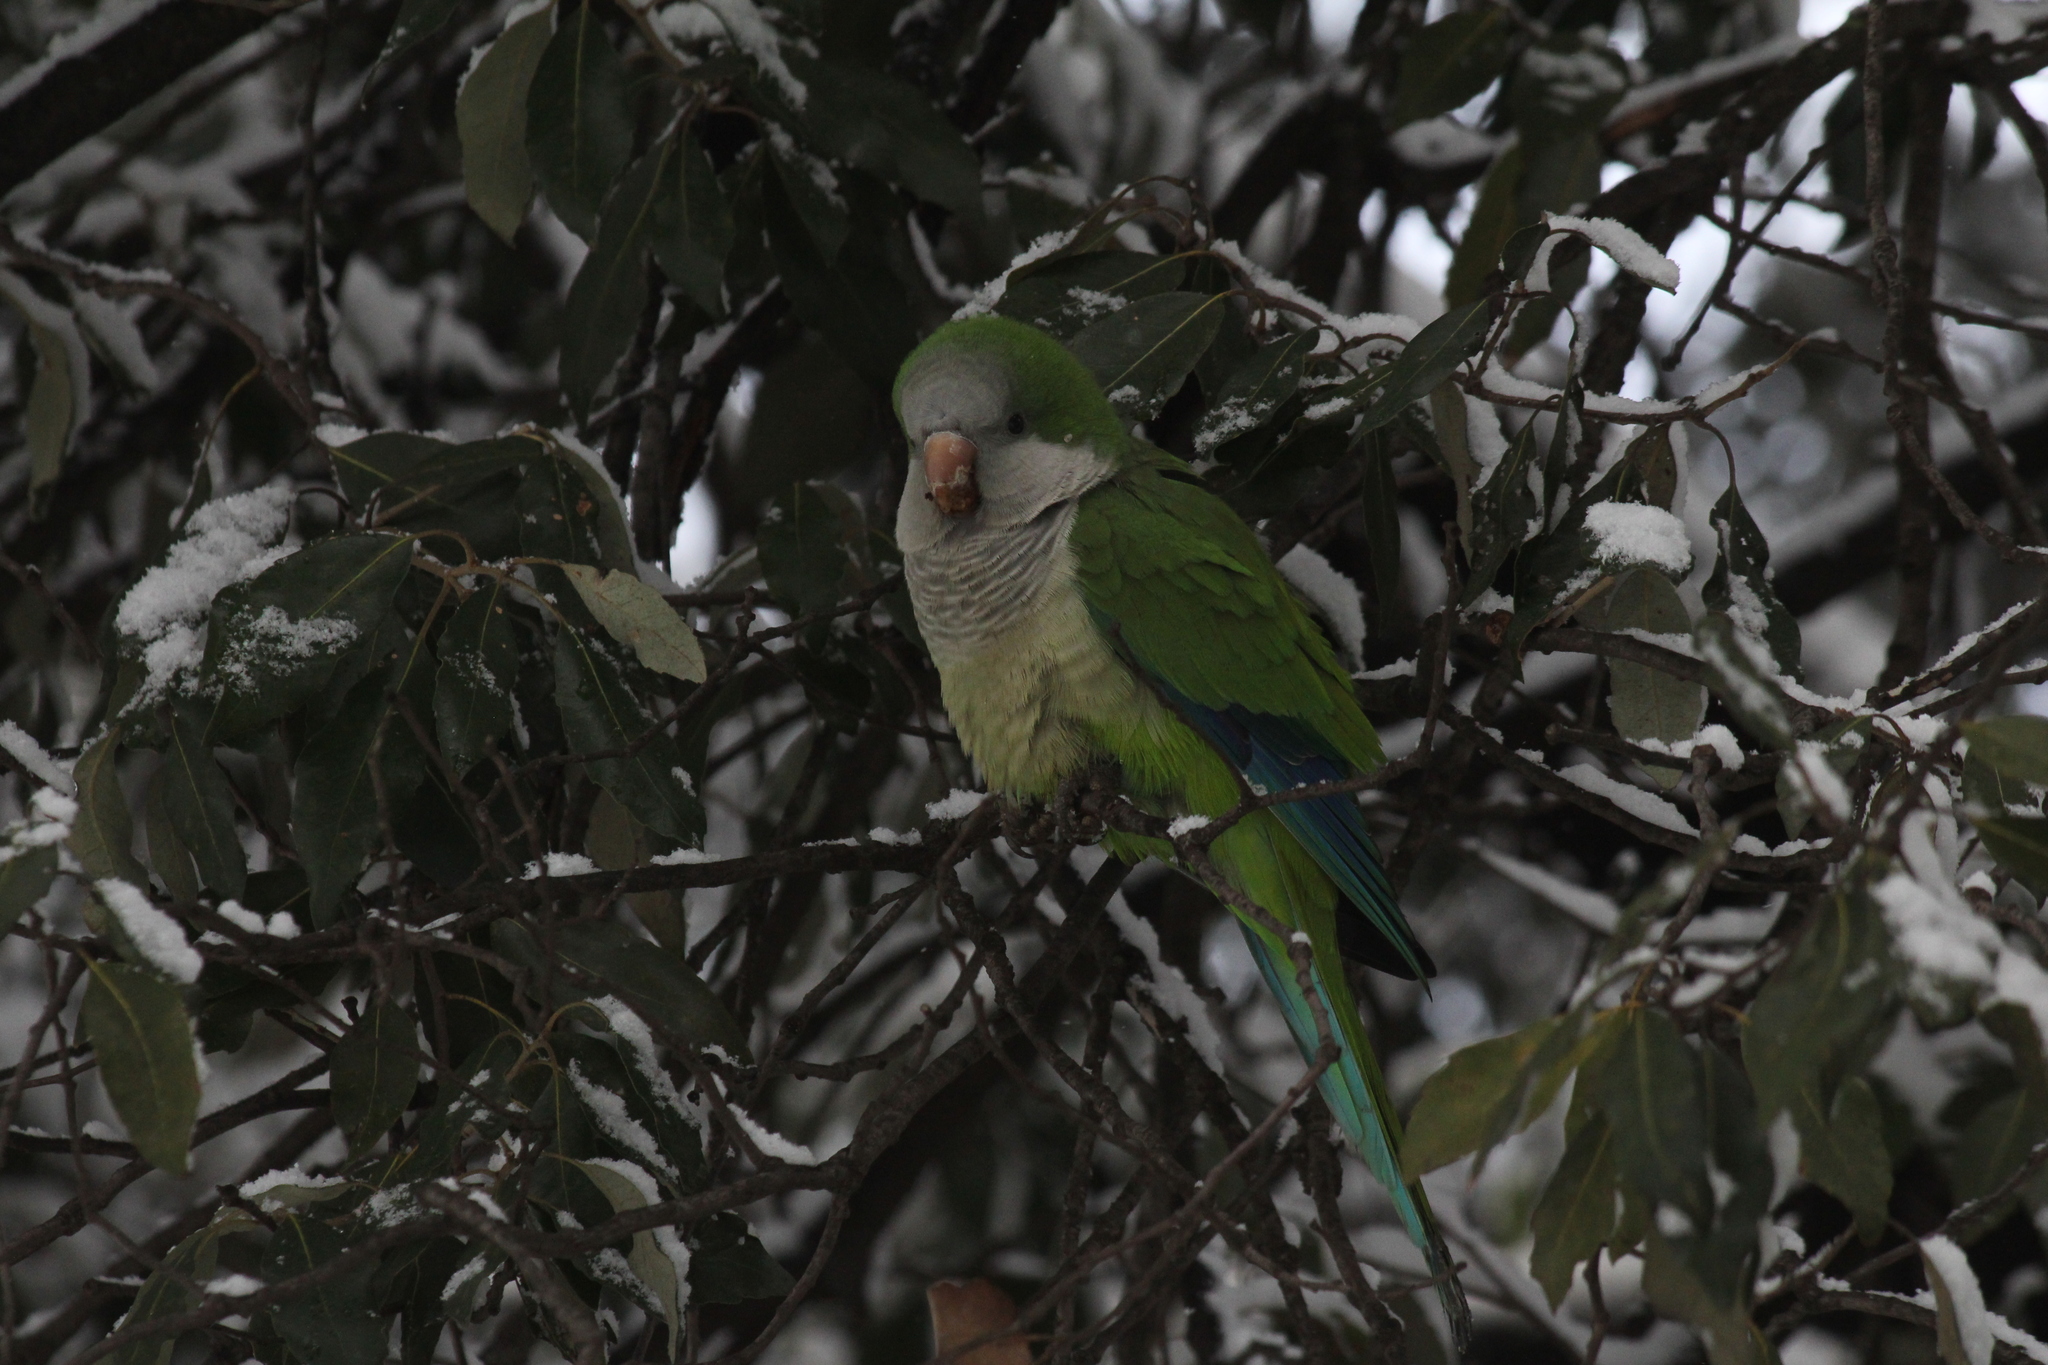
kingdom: Animalia
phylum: Chordata
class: Aves
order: Psittaciformes
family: Psittacidae
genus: Myiopsitta
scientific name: Myiopsitta monachus
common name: Monk parakeet
